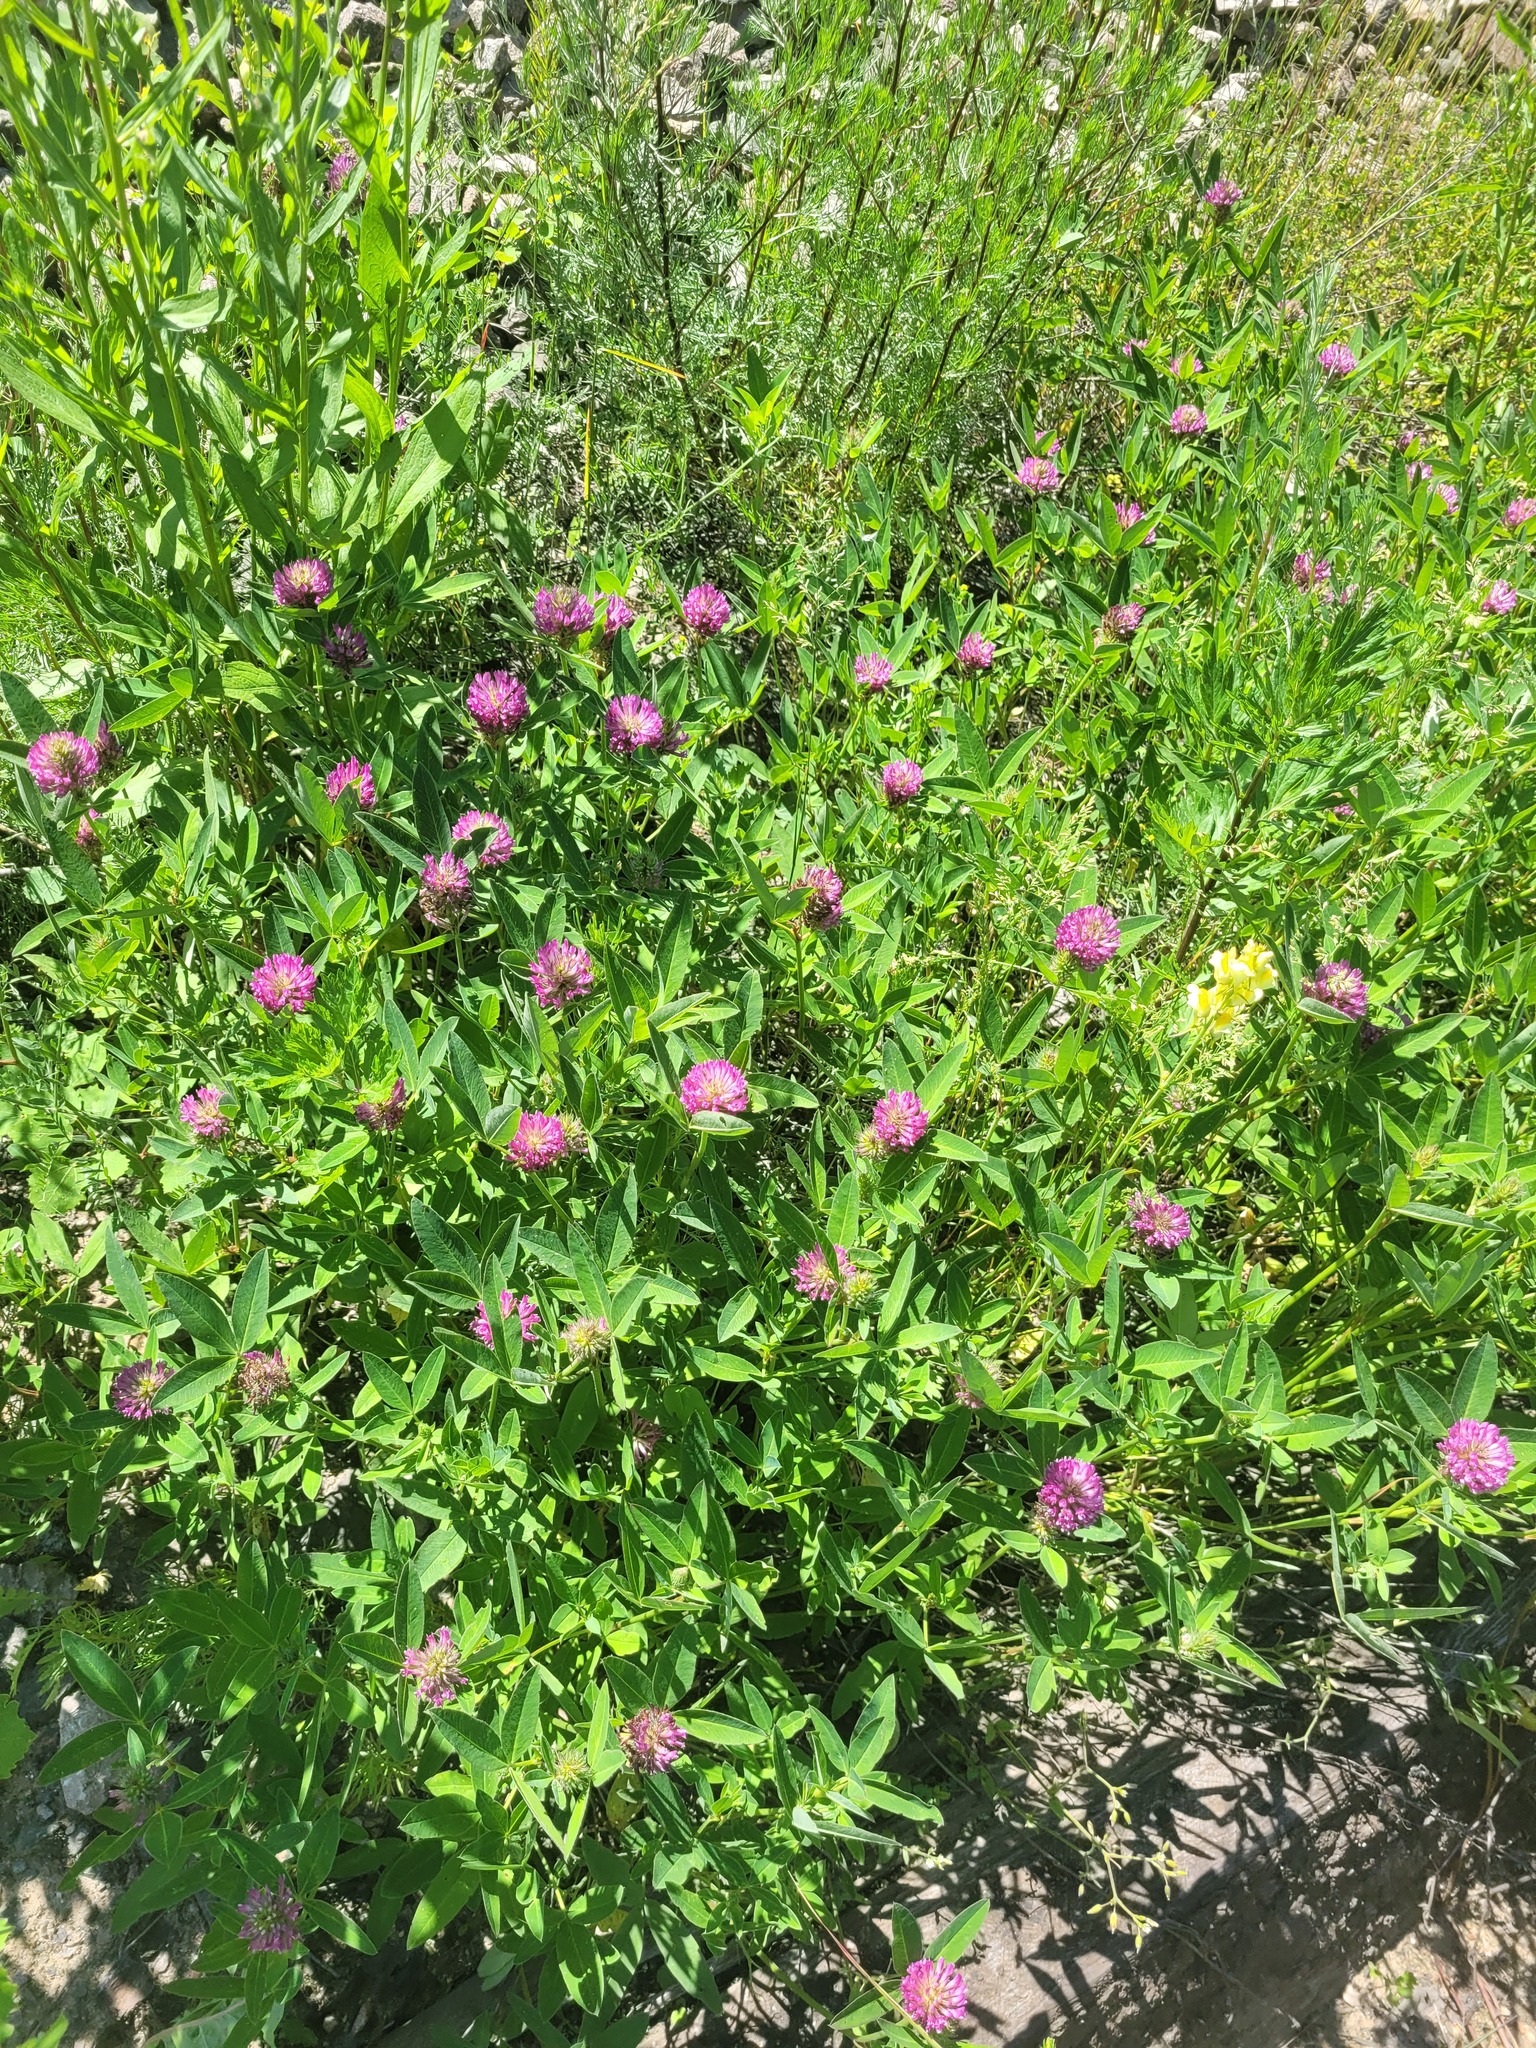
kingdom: Plantae
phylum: Tracheophyta
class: Magnoliopsida
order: Fabales
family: Fabaceae
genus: Trifolium
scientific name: Trifolium medium
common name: Zigzag clover
